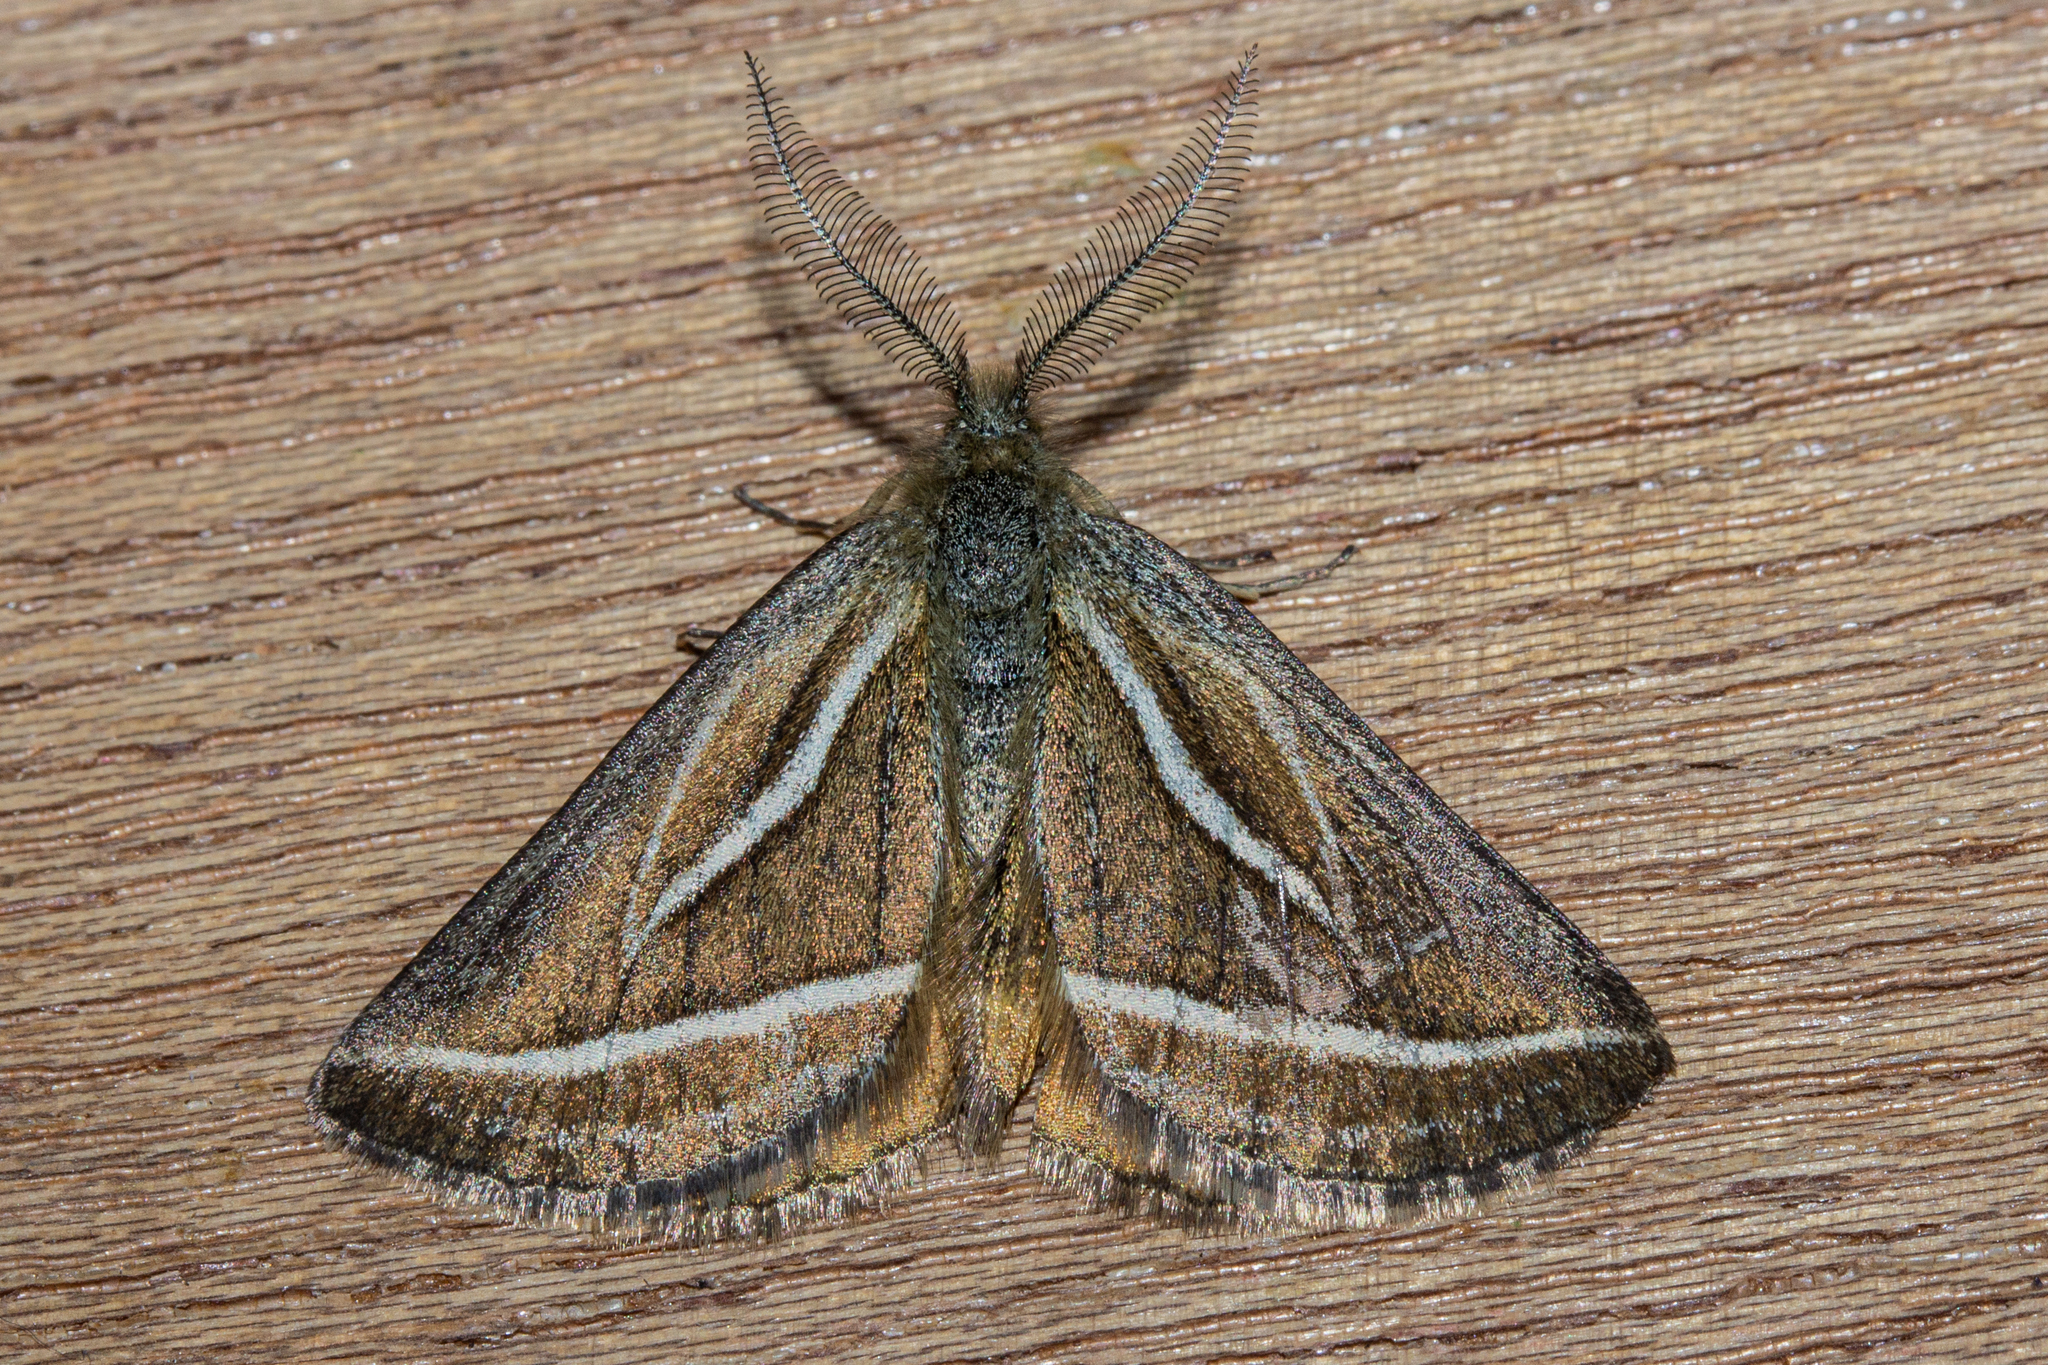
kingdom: Animalia
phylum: Arthropoda
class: Insecta
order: Lepidoptera
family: Geometridae
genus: Aponotoreas
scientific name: Aponotoreas insignis
